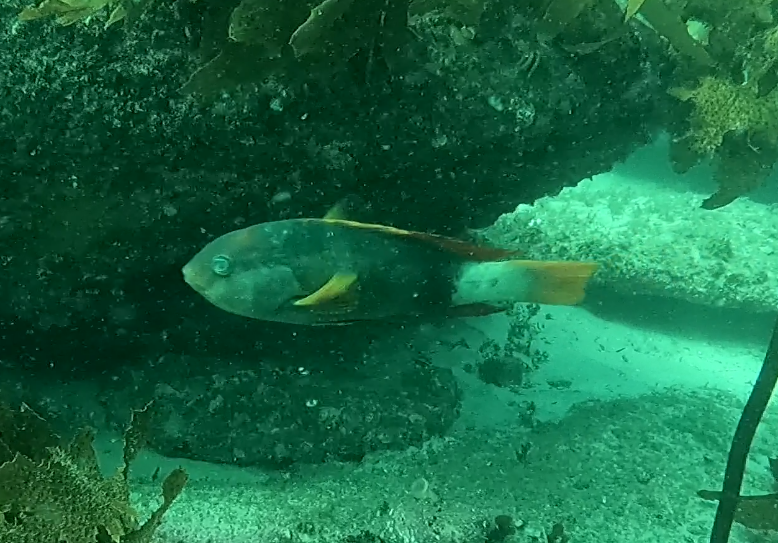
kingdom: Animalia
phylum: Chordata
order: Perciformes
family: Labridae
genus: Notolabrus
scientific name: Notolabrus gymnogenis
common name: Crimson banded wrasse
